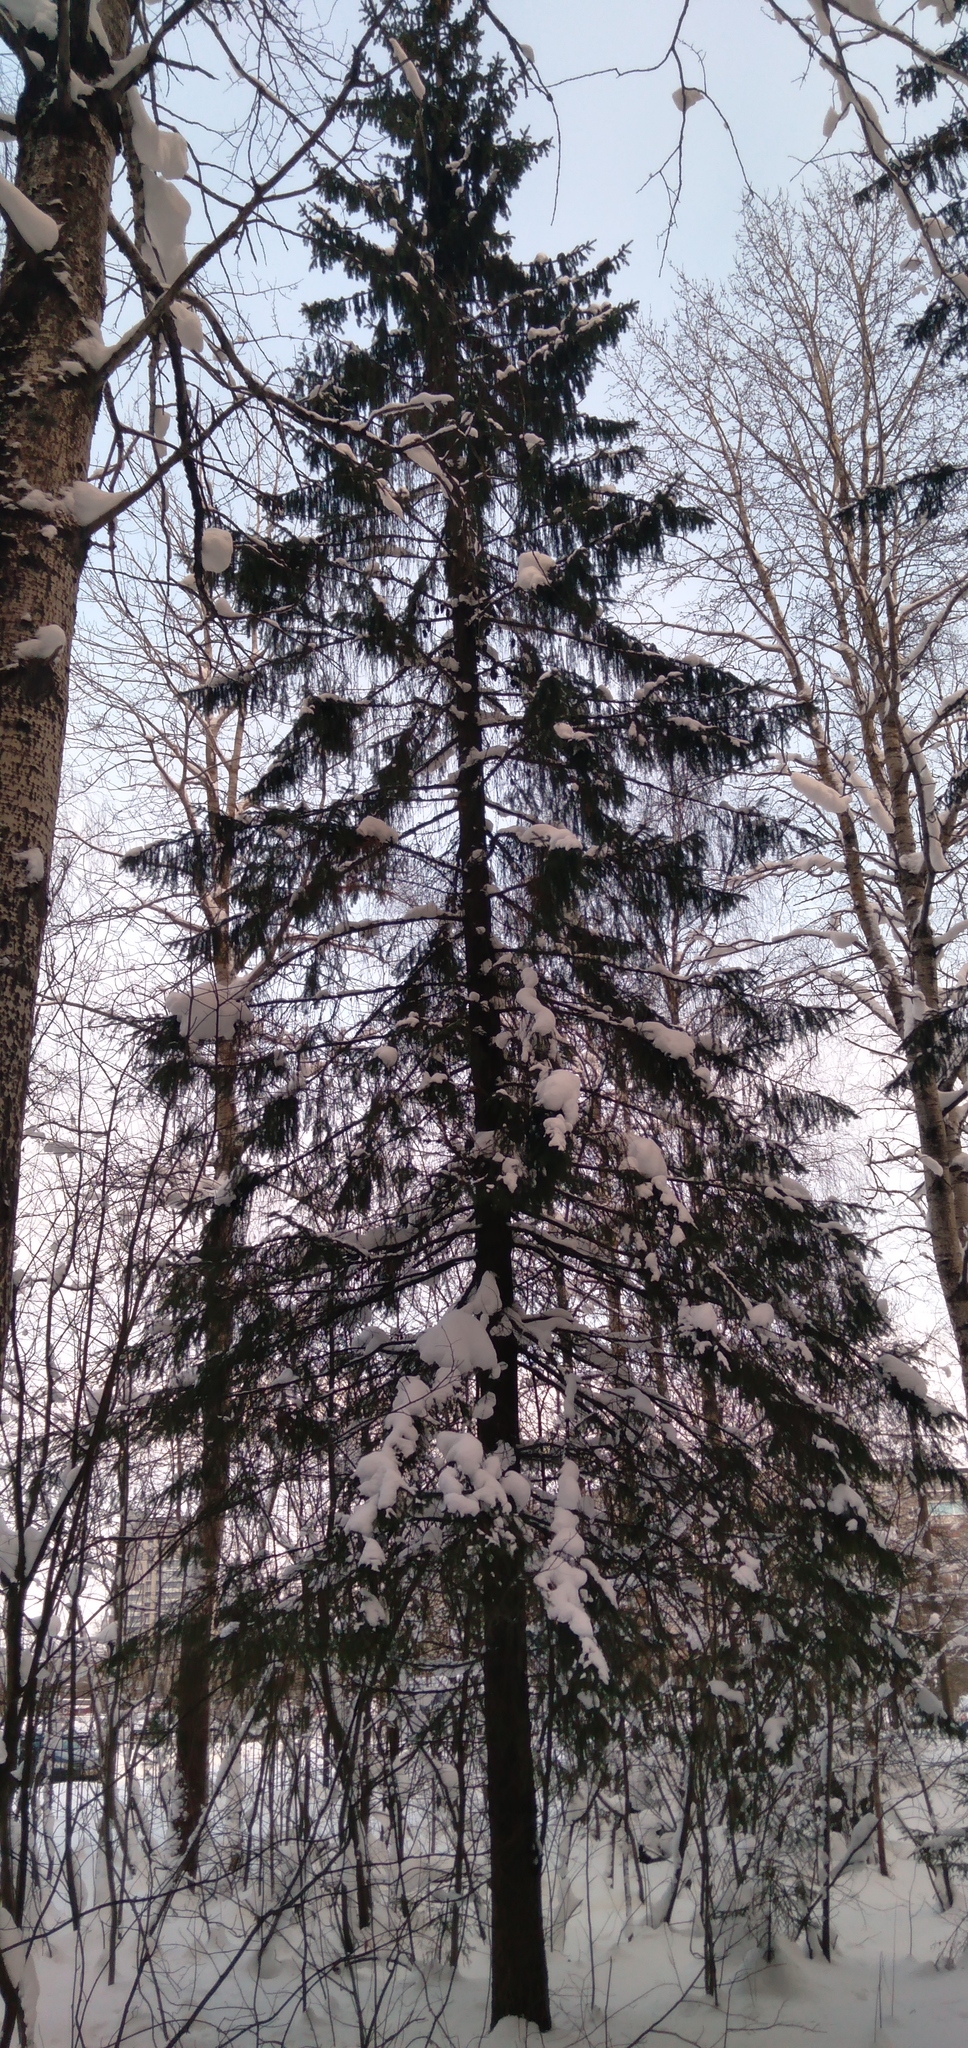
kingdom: Plantae
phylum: Tracheophyta
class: Pinopsida
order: Pinales
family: Pinaceae
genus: Picea
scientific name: Picea
